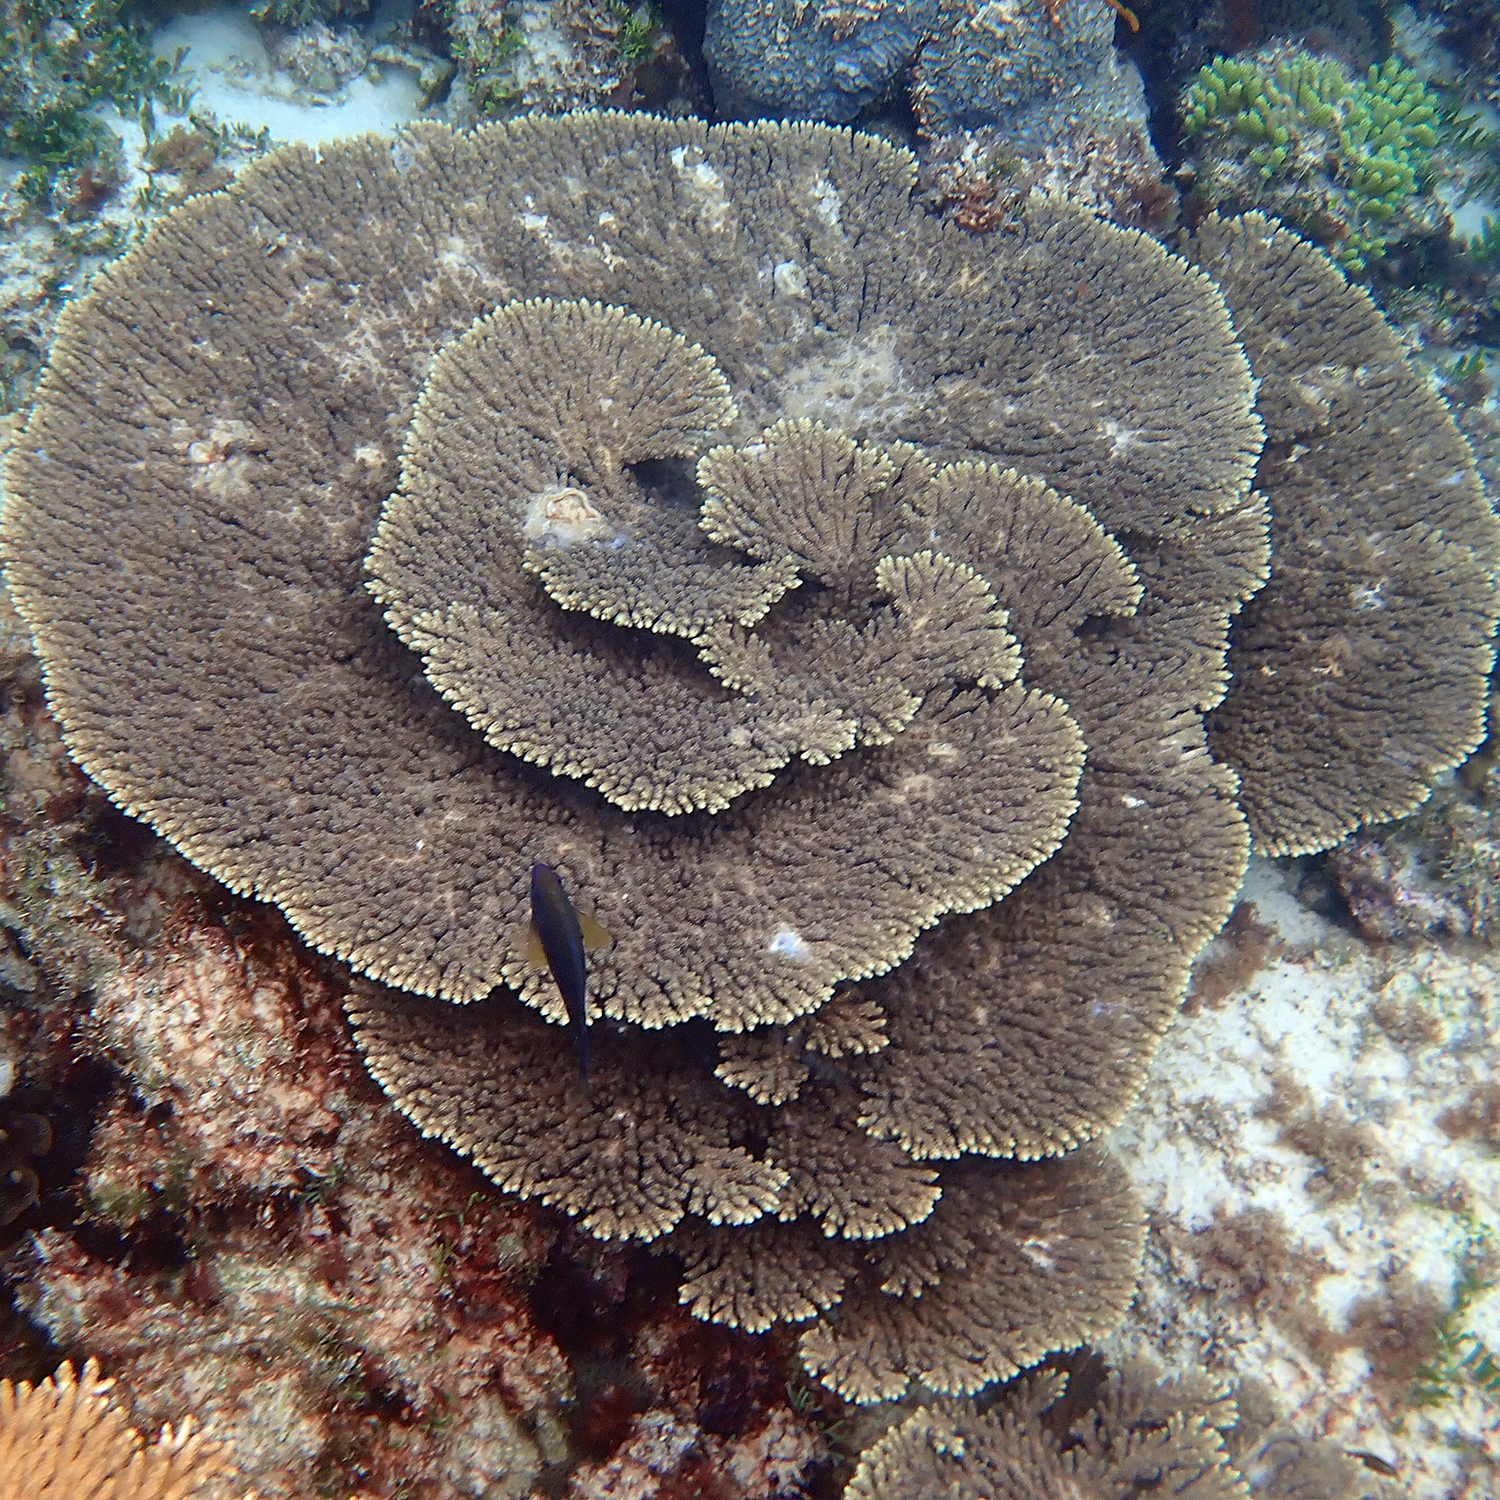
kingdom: Animalia
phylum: Cnidaria
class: Anthozoa
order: Scleractinia
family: Acroporidae
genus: Acropora
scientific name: Acropora solitaryensis
